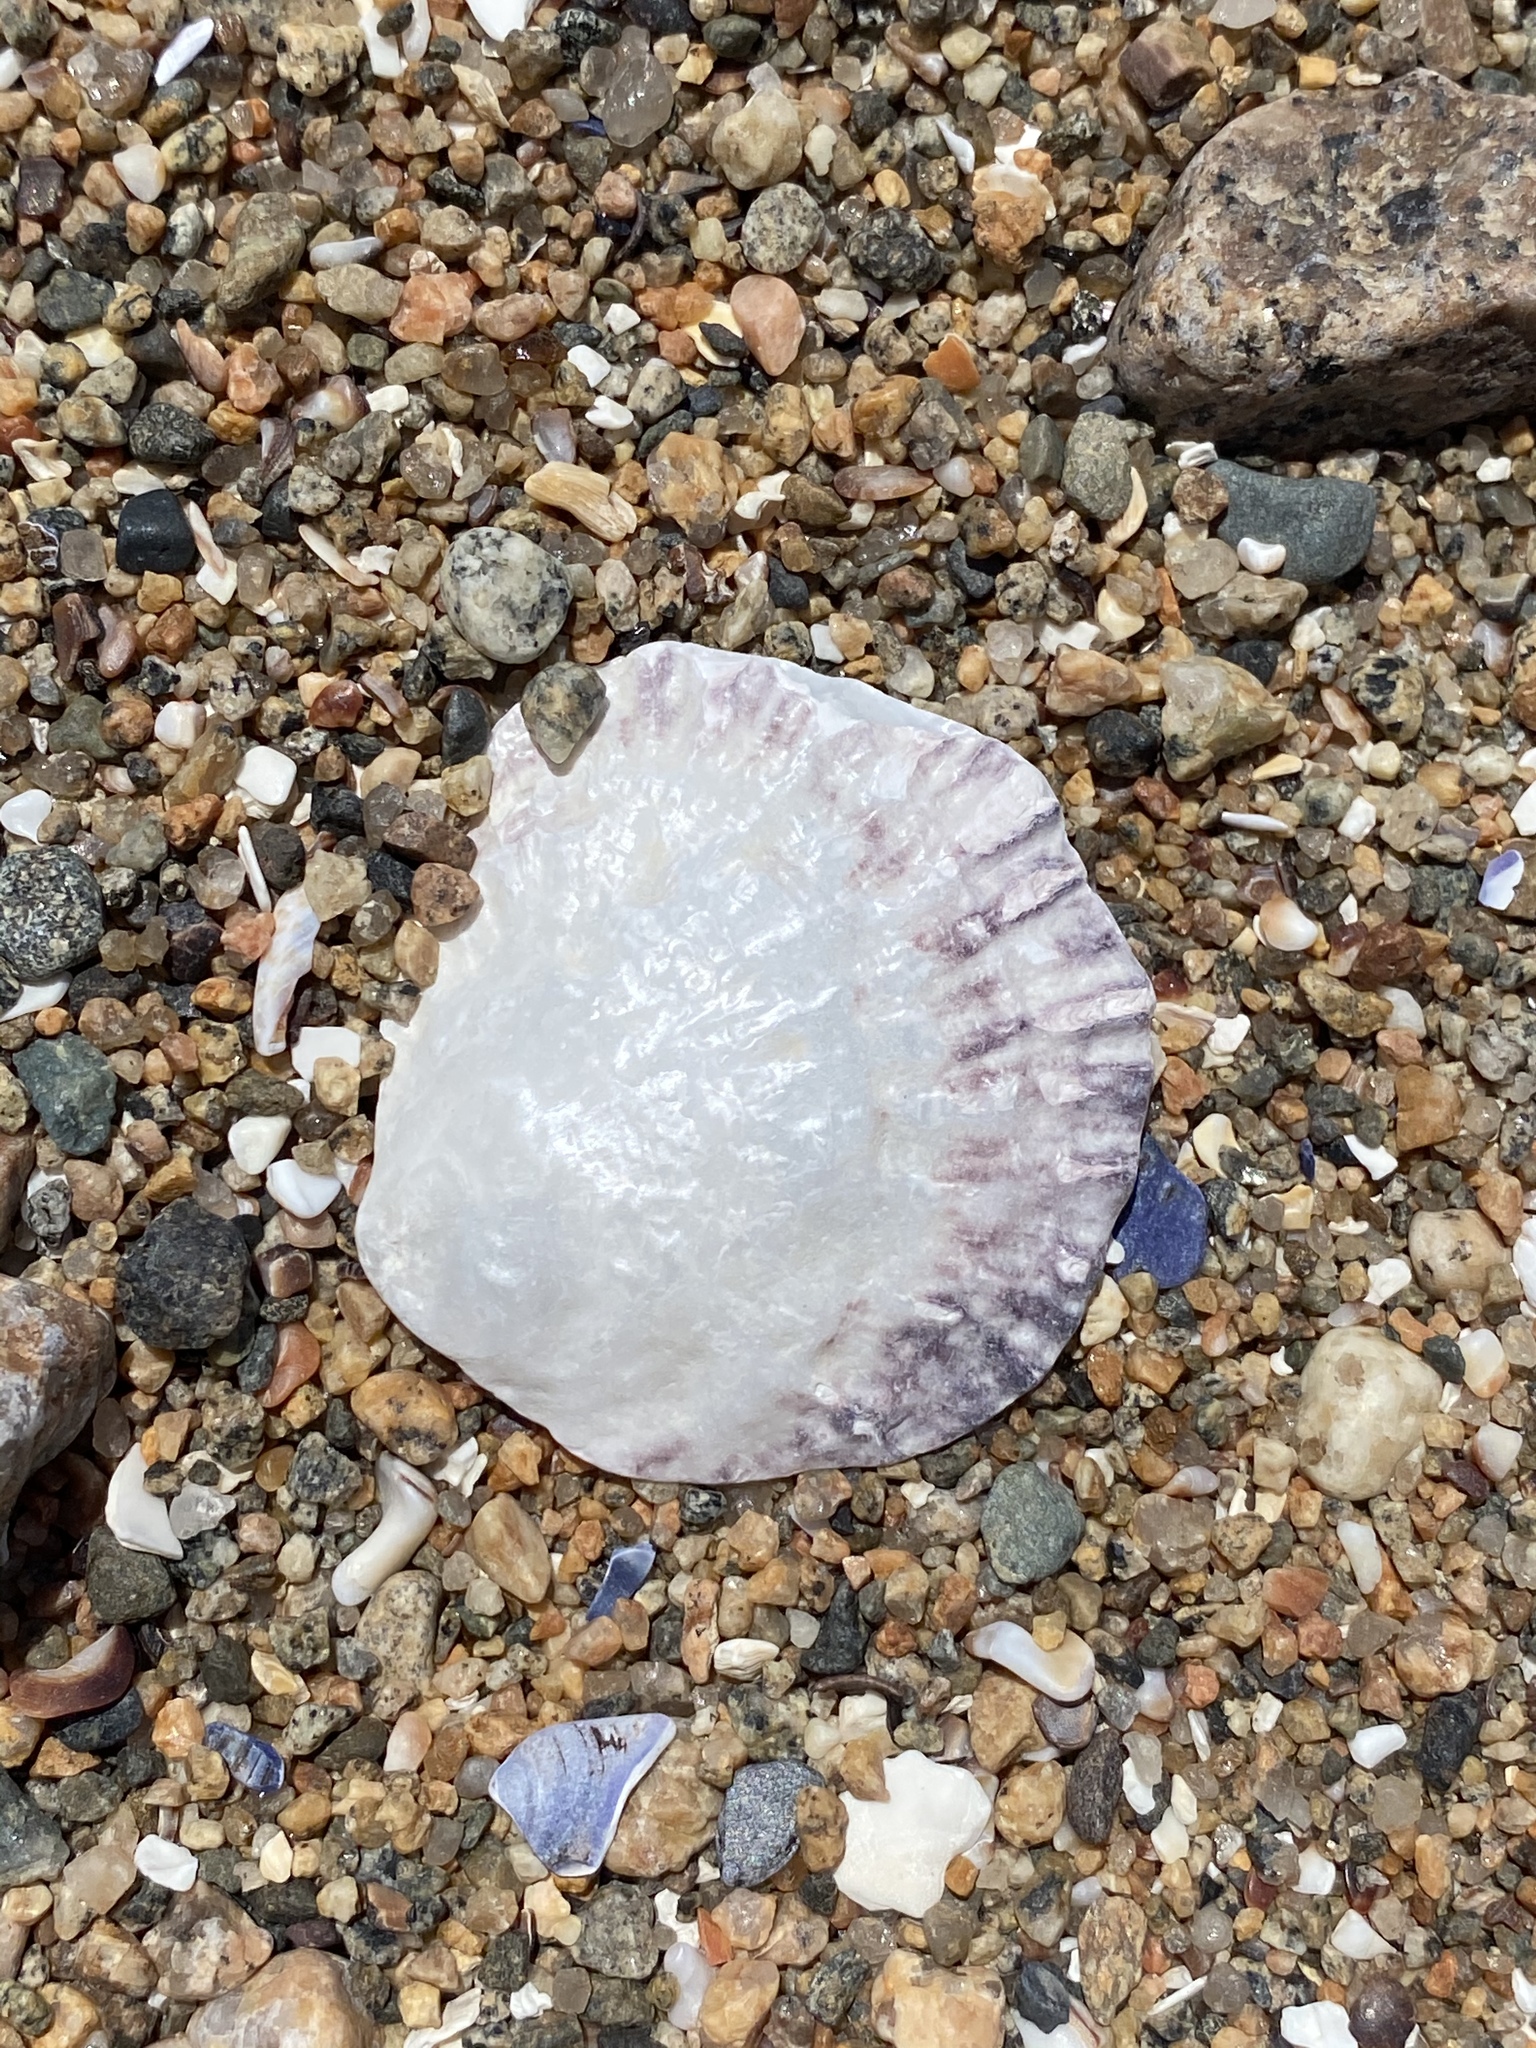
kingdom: Animalia
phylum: Mollusca
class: Bivalvia
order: Ostreida
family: Ostreidae
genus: Ostrea
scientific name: Ostrea edulis
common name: Flat oyster
